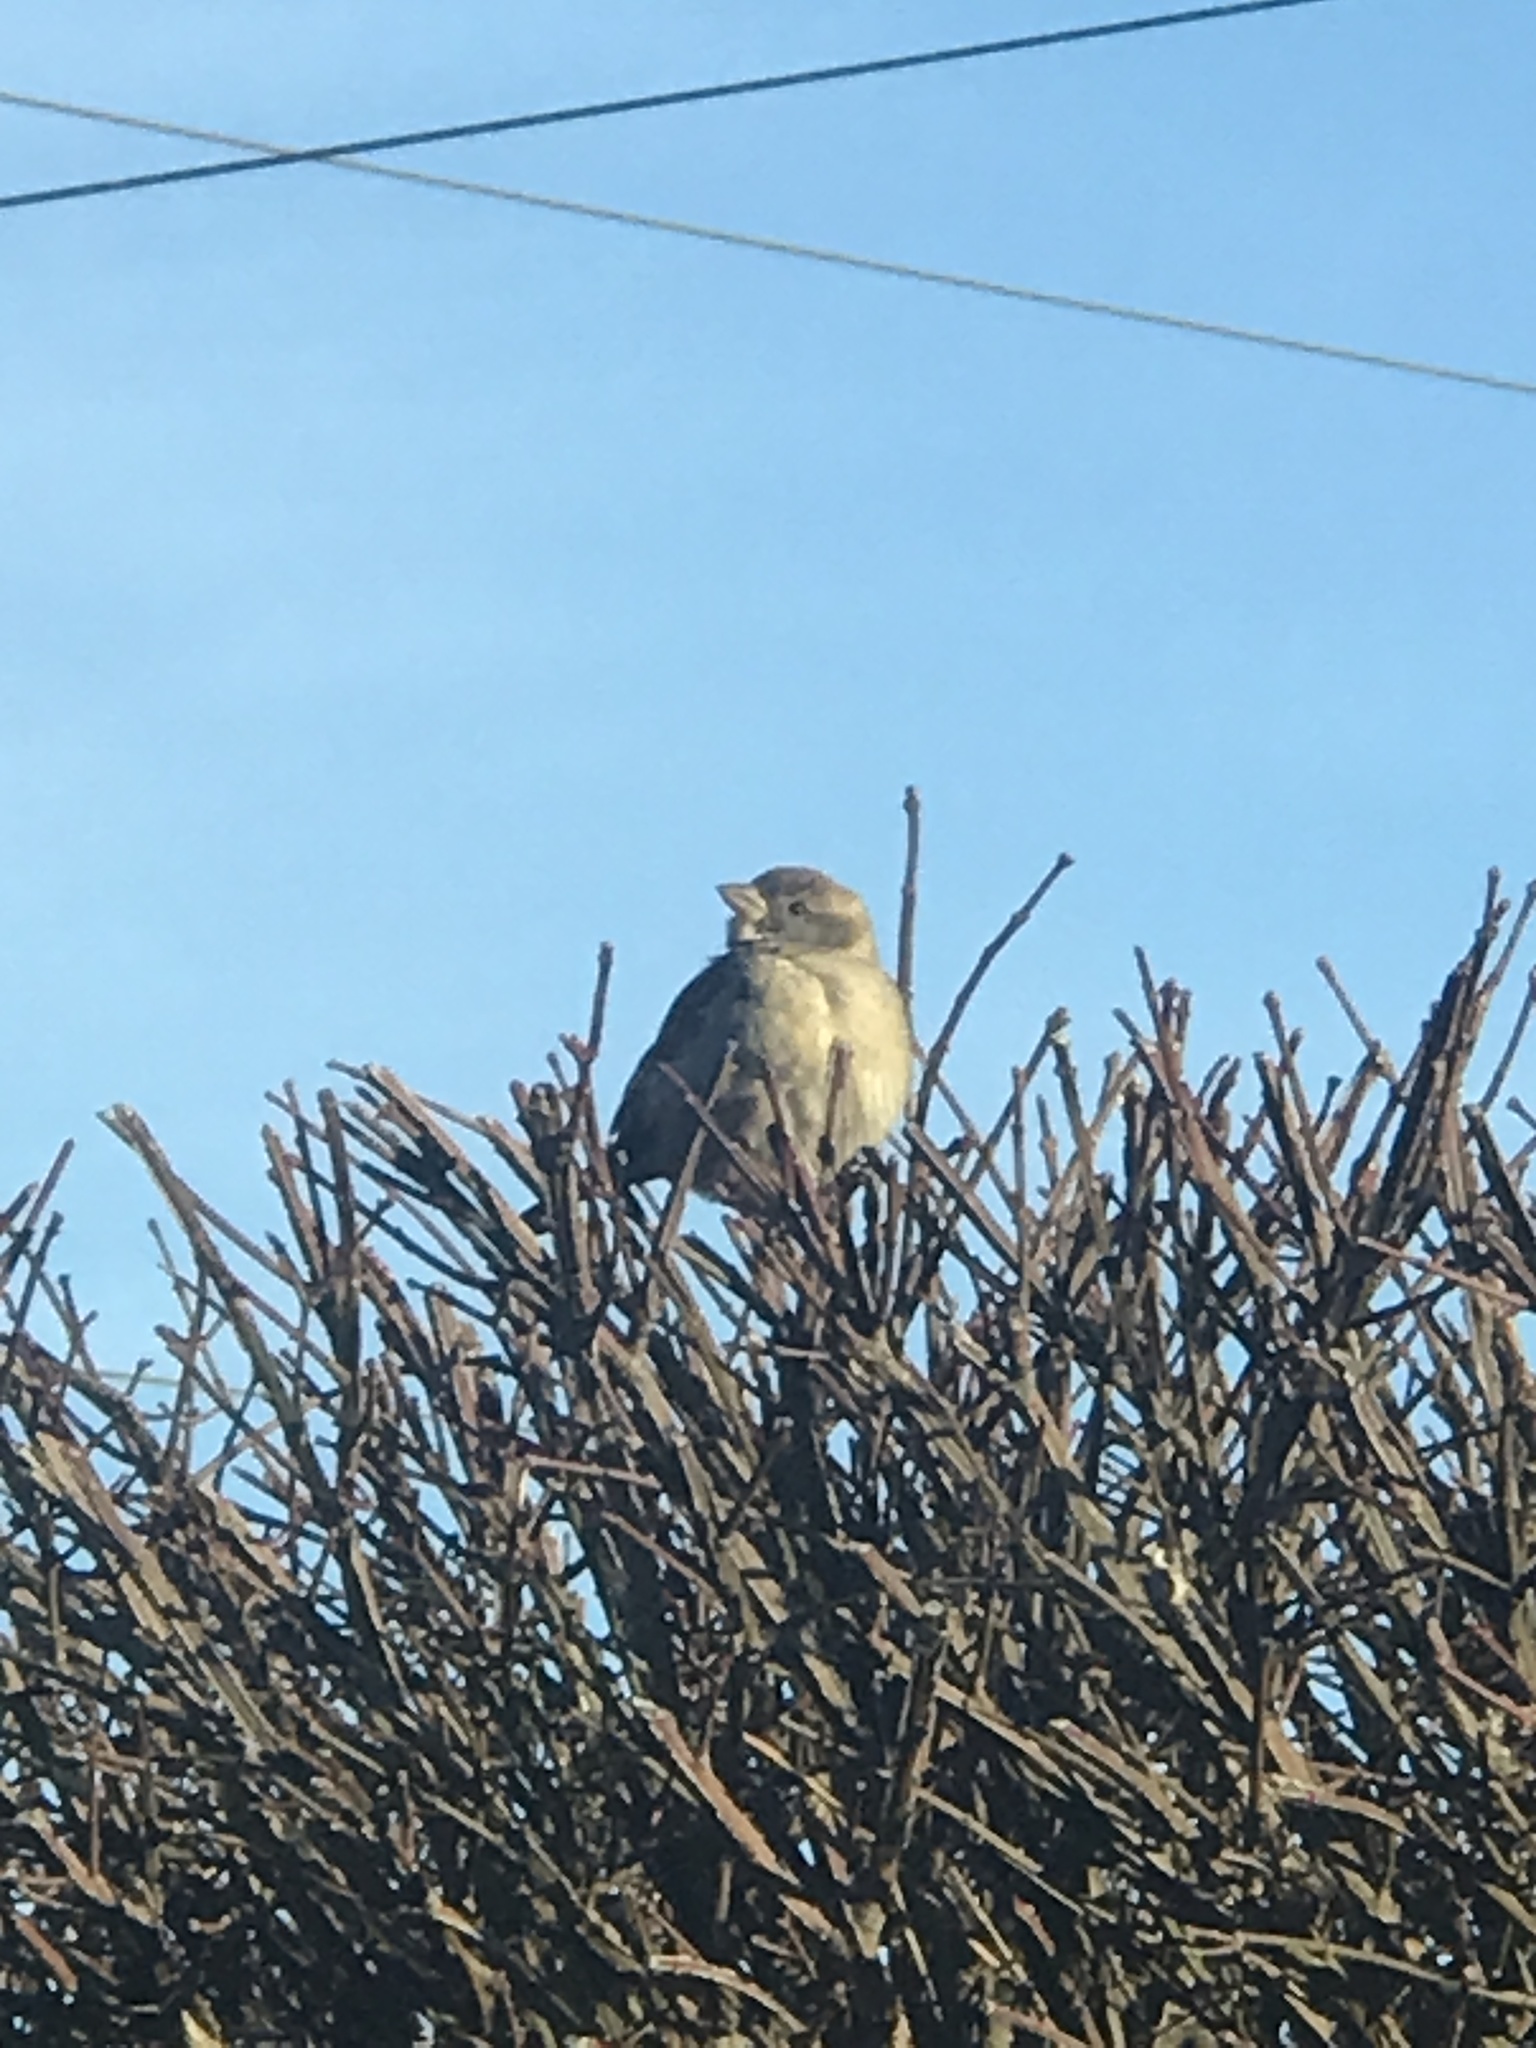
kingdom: Animalia
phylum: Chordata
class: Aves
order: Passeriformes
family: Passeridae
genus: Passer
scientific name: Passer domesticus
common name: House sparrow
